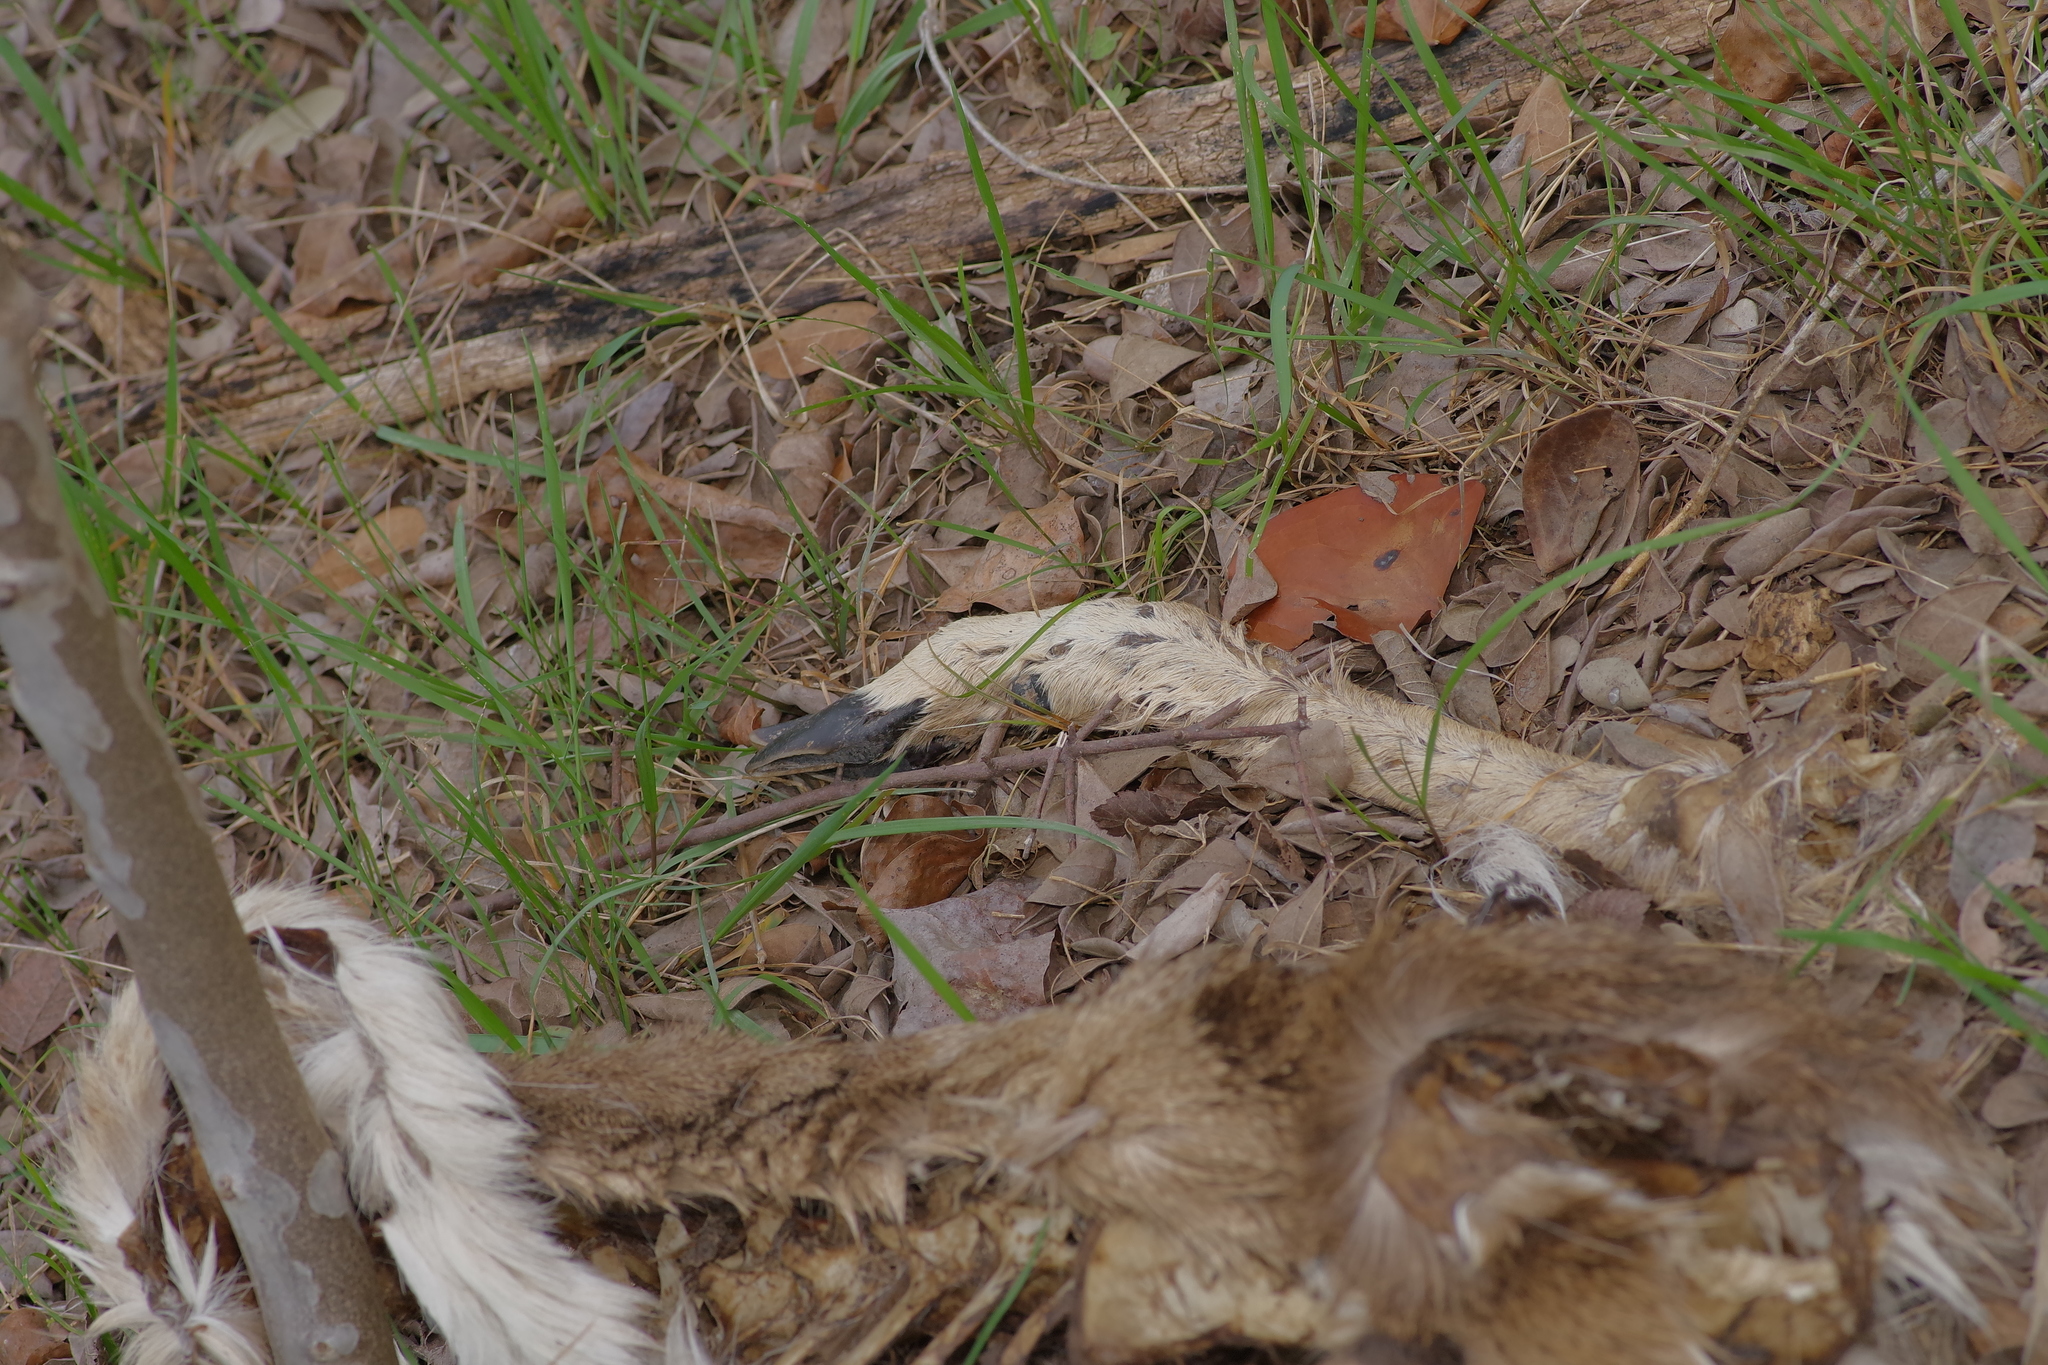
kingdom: Animalia
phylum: Chordata
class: Mammalia
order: Artiodactyla
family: Cervidae
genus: Odocoileus
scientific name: Odocoileus virginianus
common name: White-tailed deer
